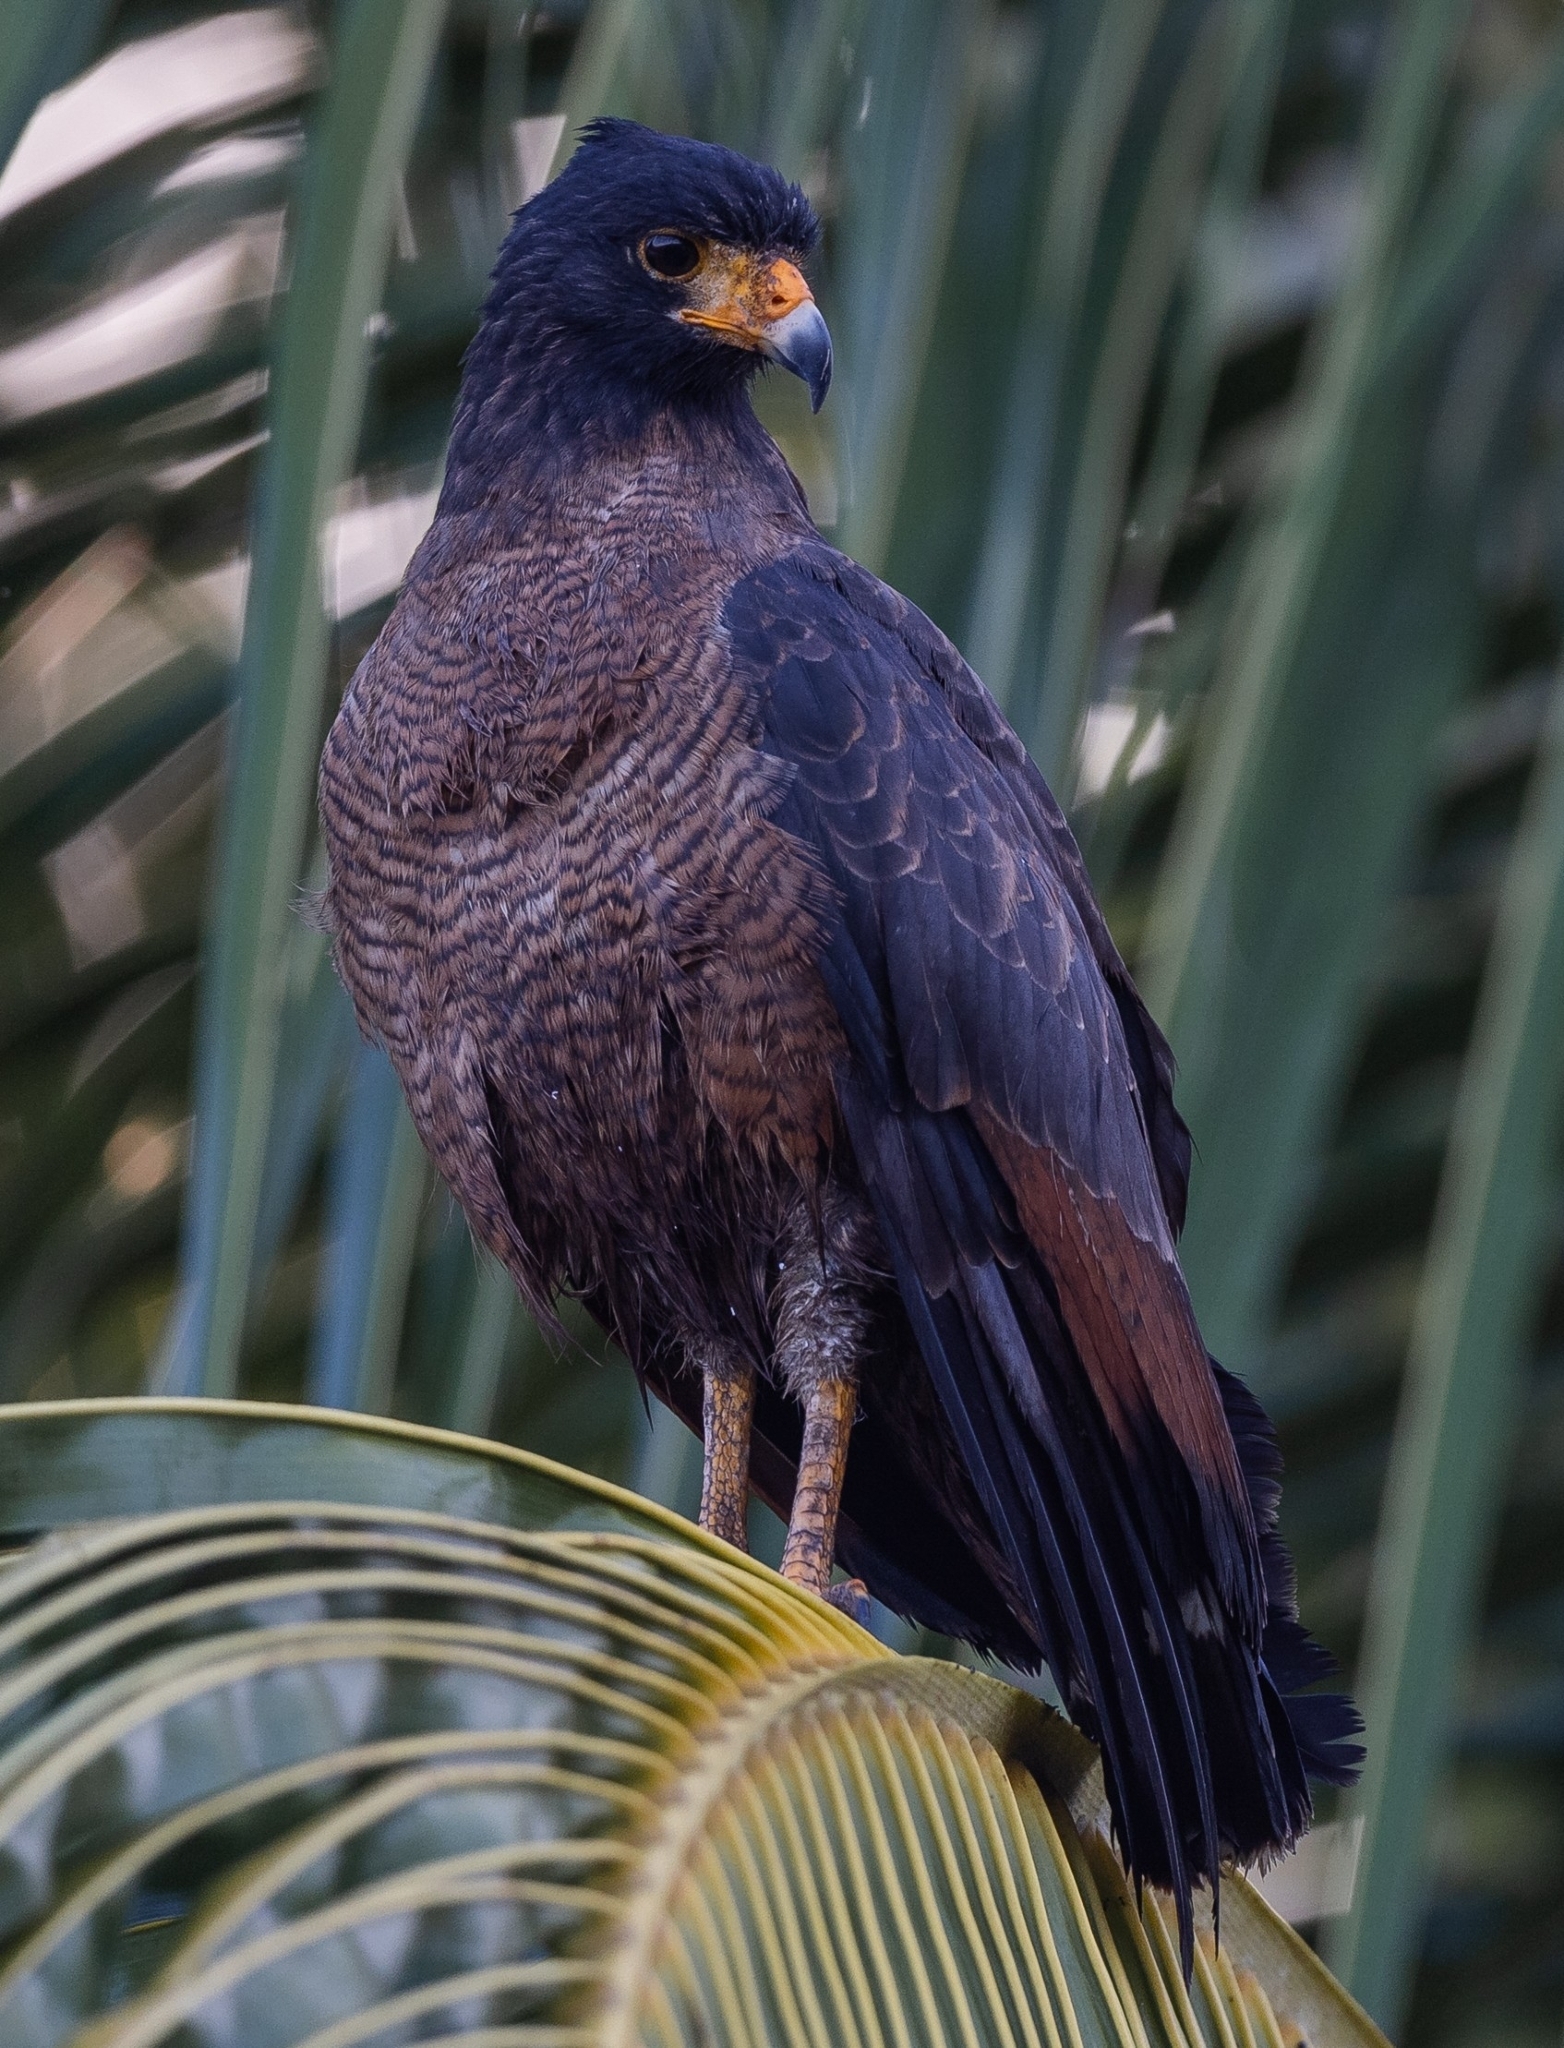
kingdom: Animalia
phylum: Chordata
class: Aves
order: Accipitriformes
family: Accipitridae
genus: Buteogallus
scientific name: Buteogallus aequinoctialis
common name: Rufous crab hawk
